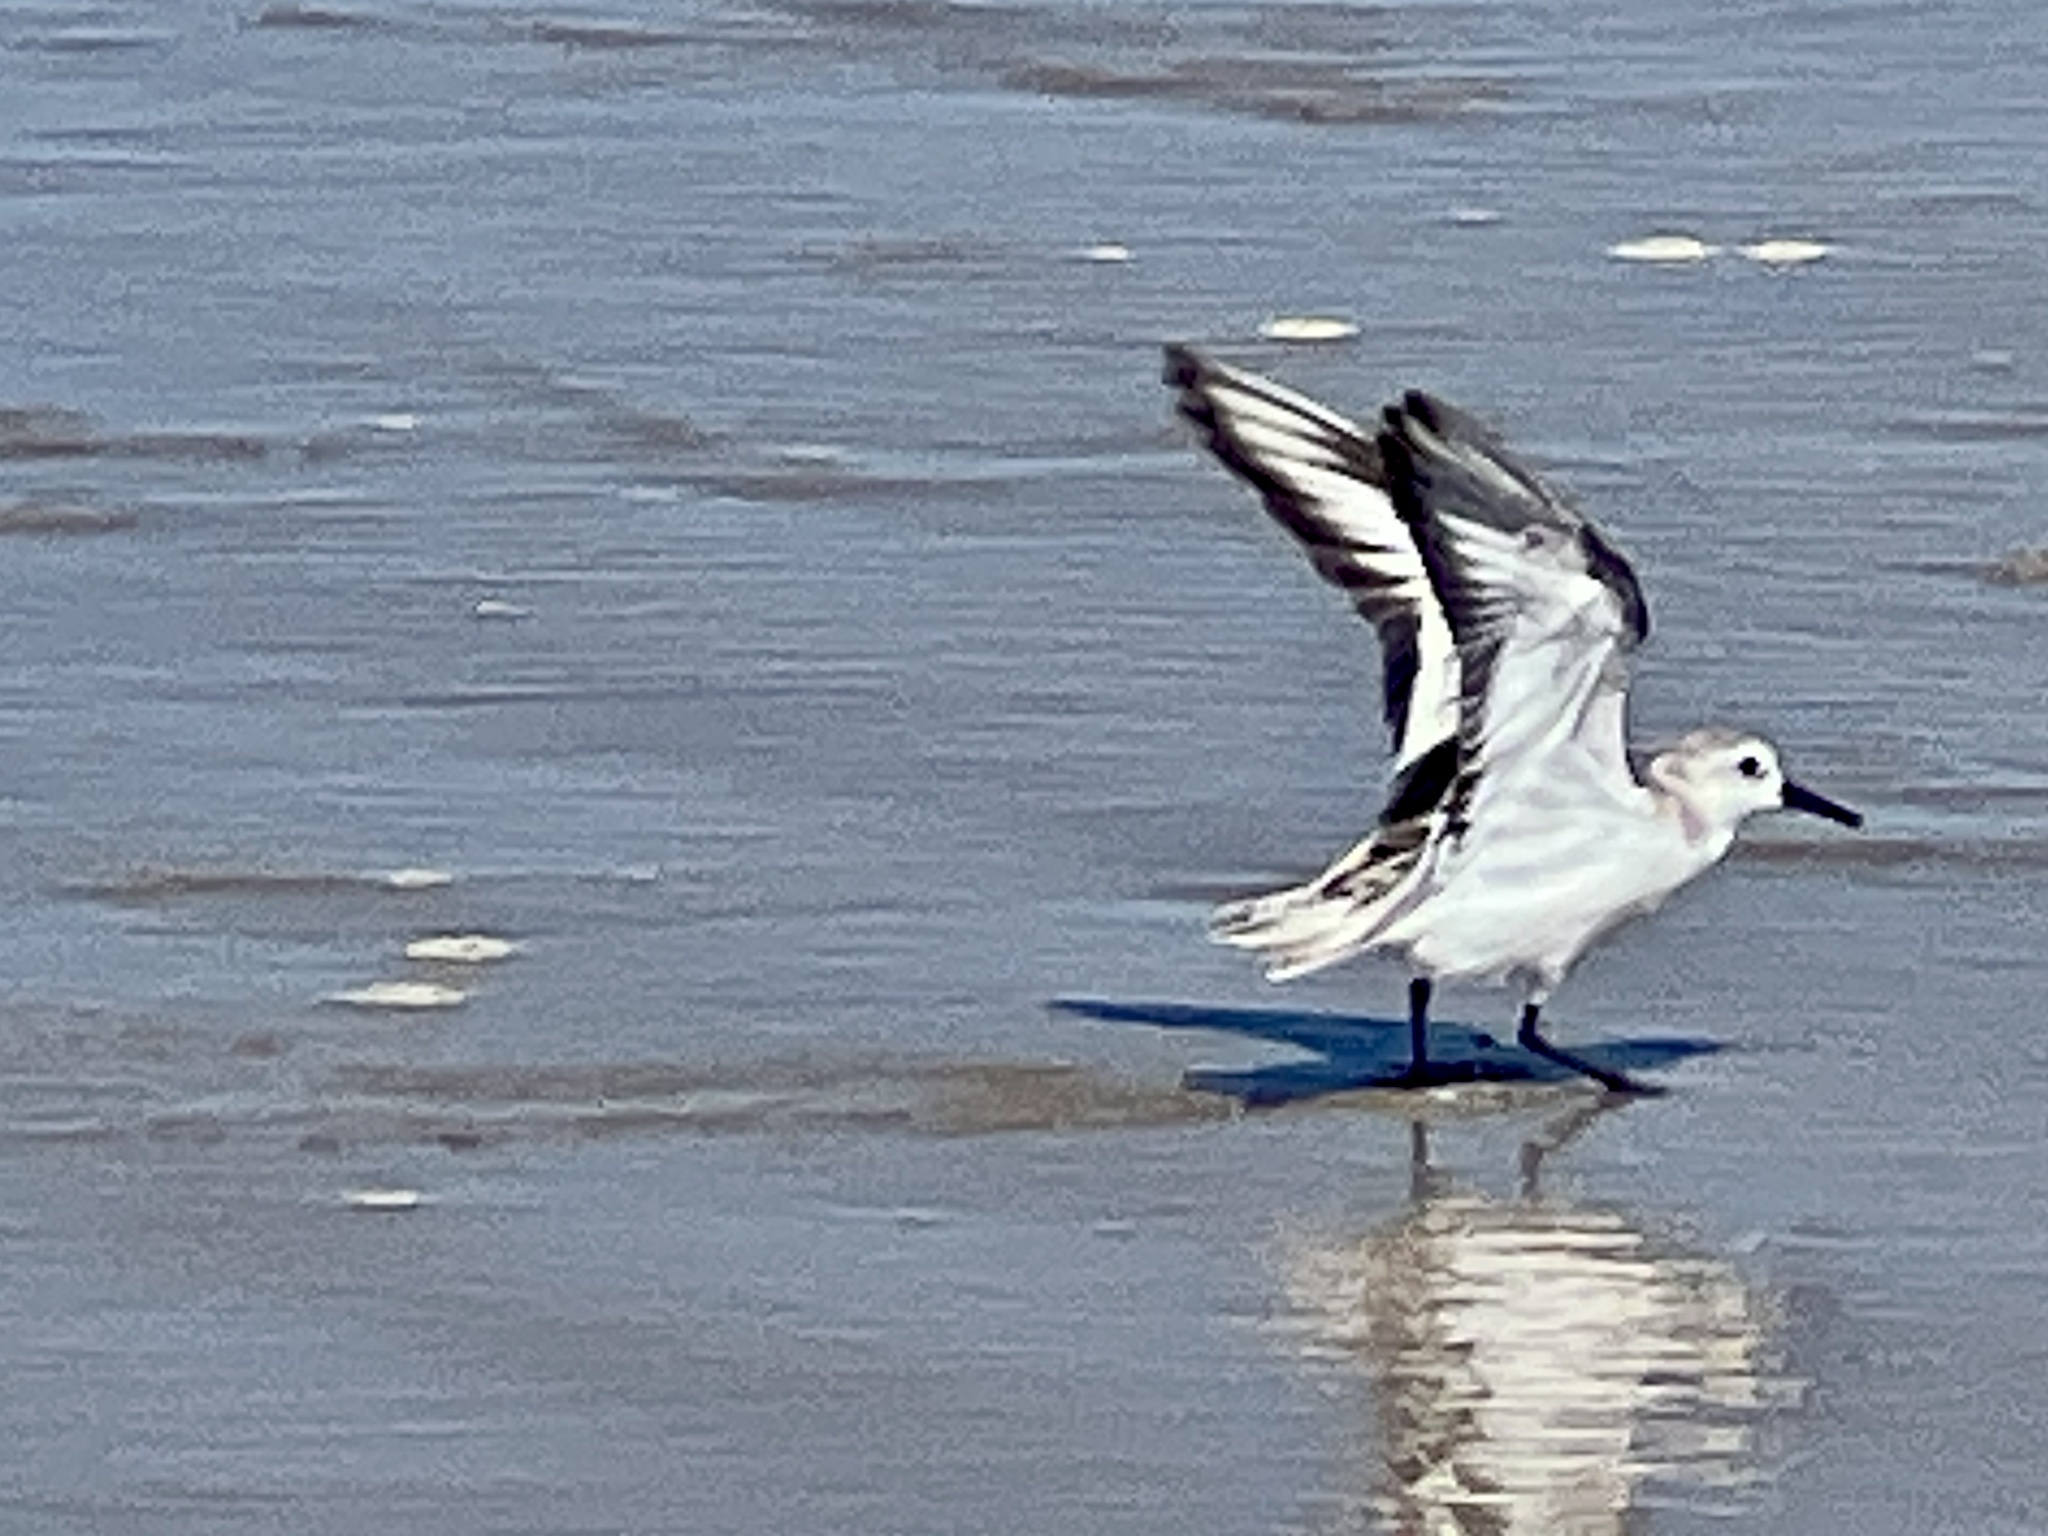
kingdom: Animalia
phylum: Chordata
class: Aves
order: Charadriiformes
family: Scolopacidae
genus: Calidris
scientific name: Calidris alba
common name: Sanderling
